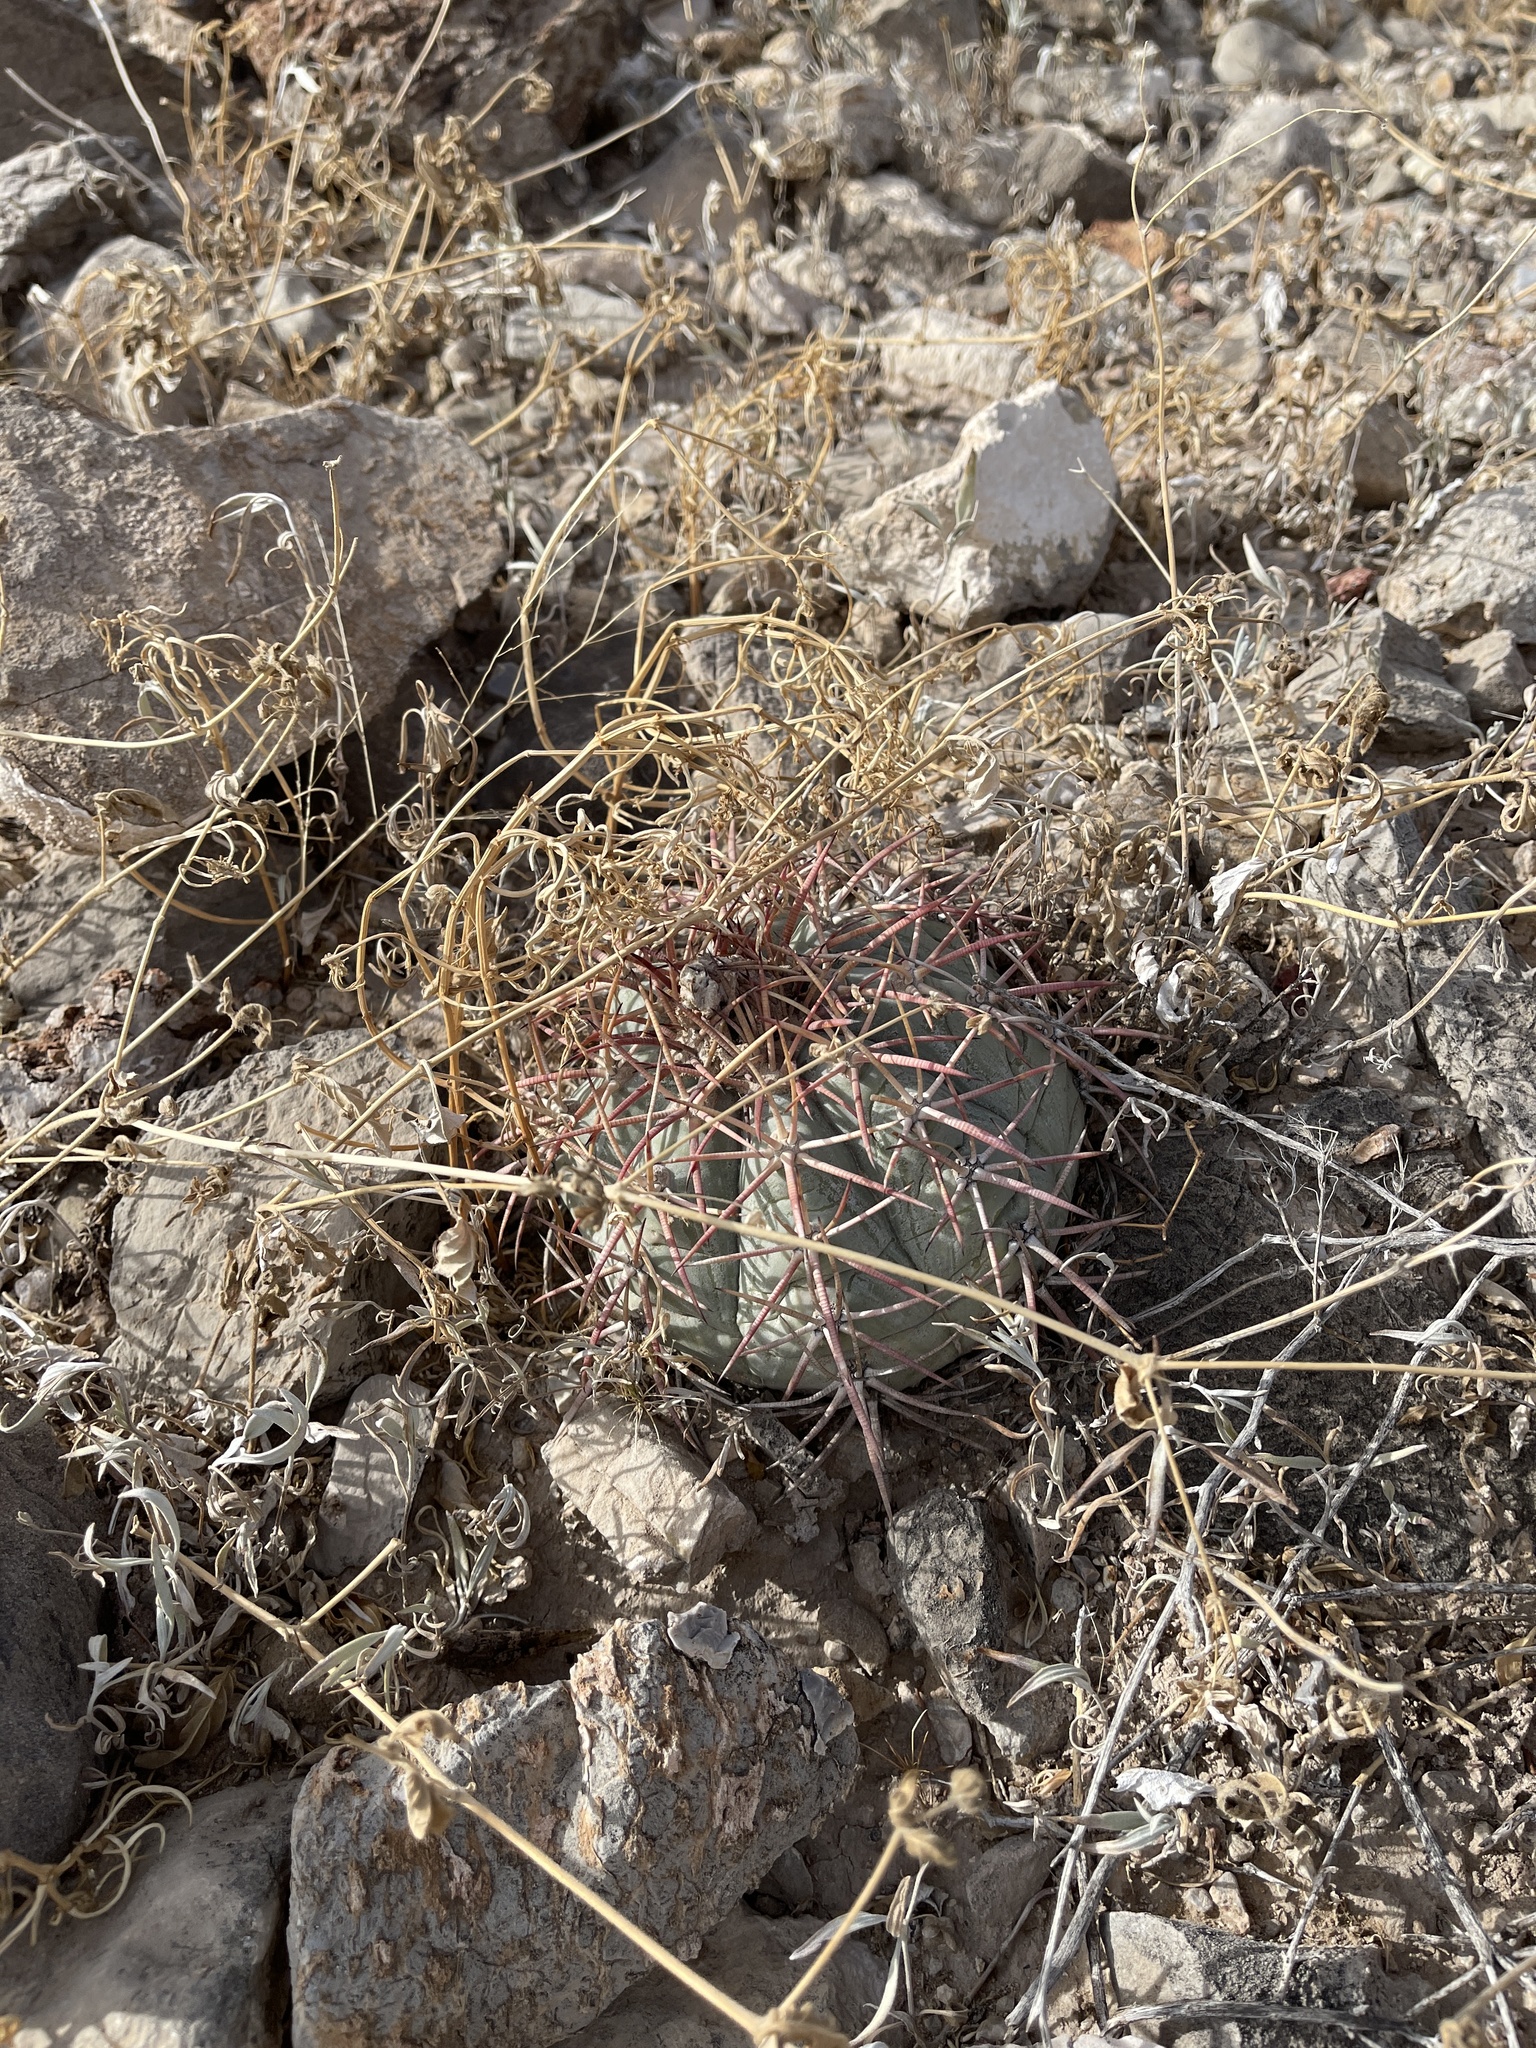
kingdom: Plantae
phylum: Tracheophyta
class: Magnoliopsida
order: Caryophyllales
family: Cactaceae
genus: Echinocactus
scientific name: Echinocactus horizonthalonius
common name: Devilshead
